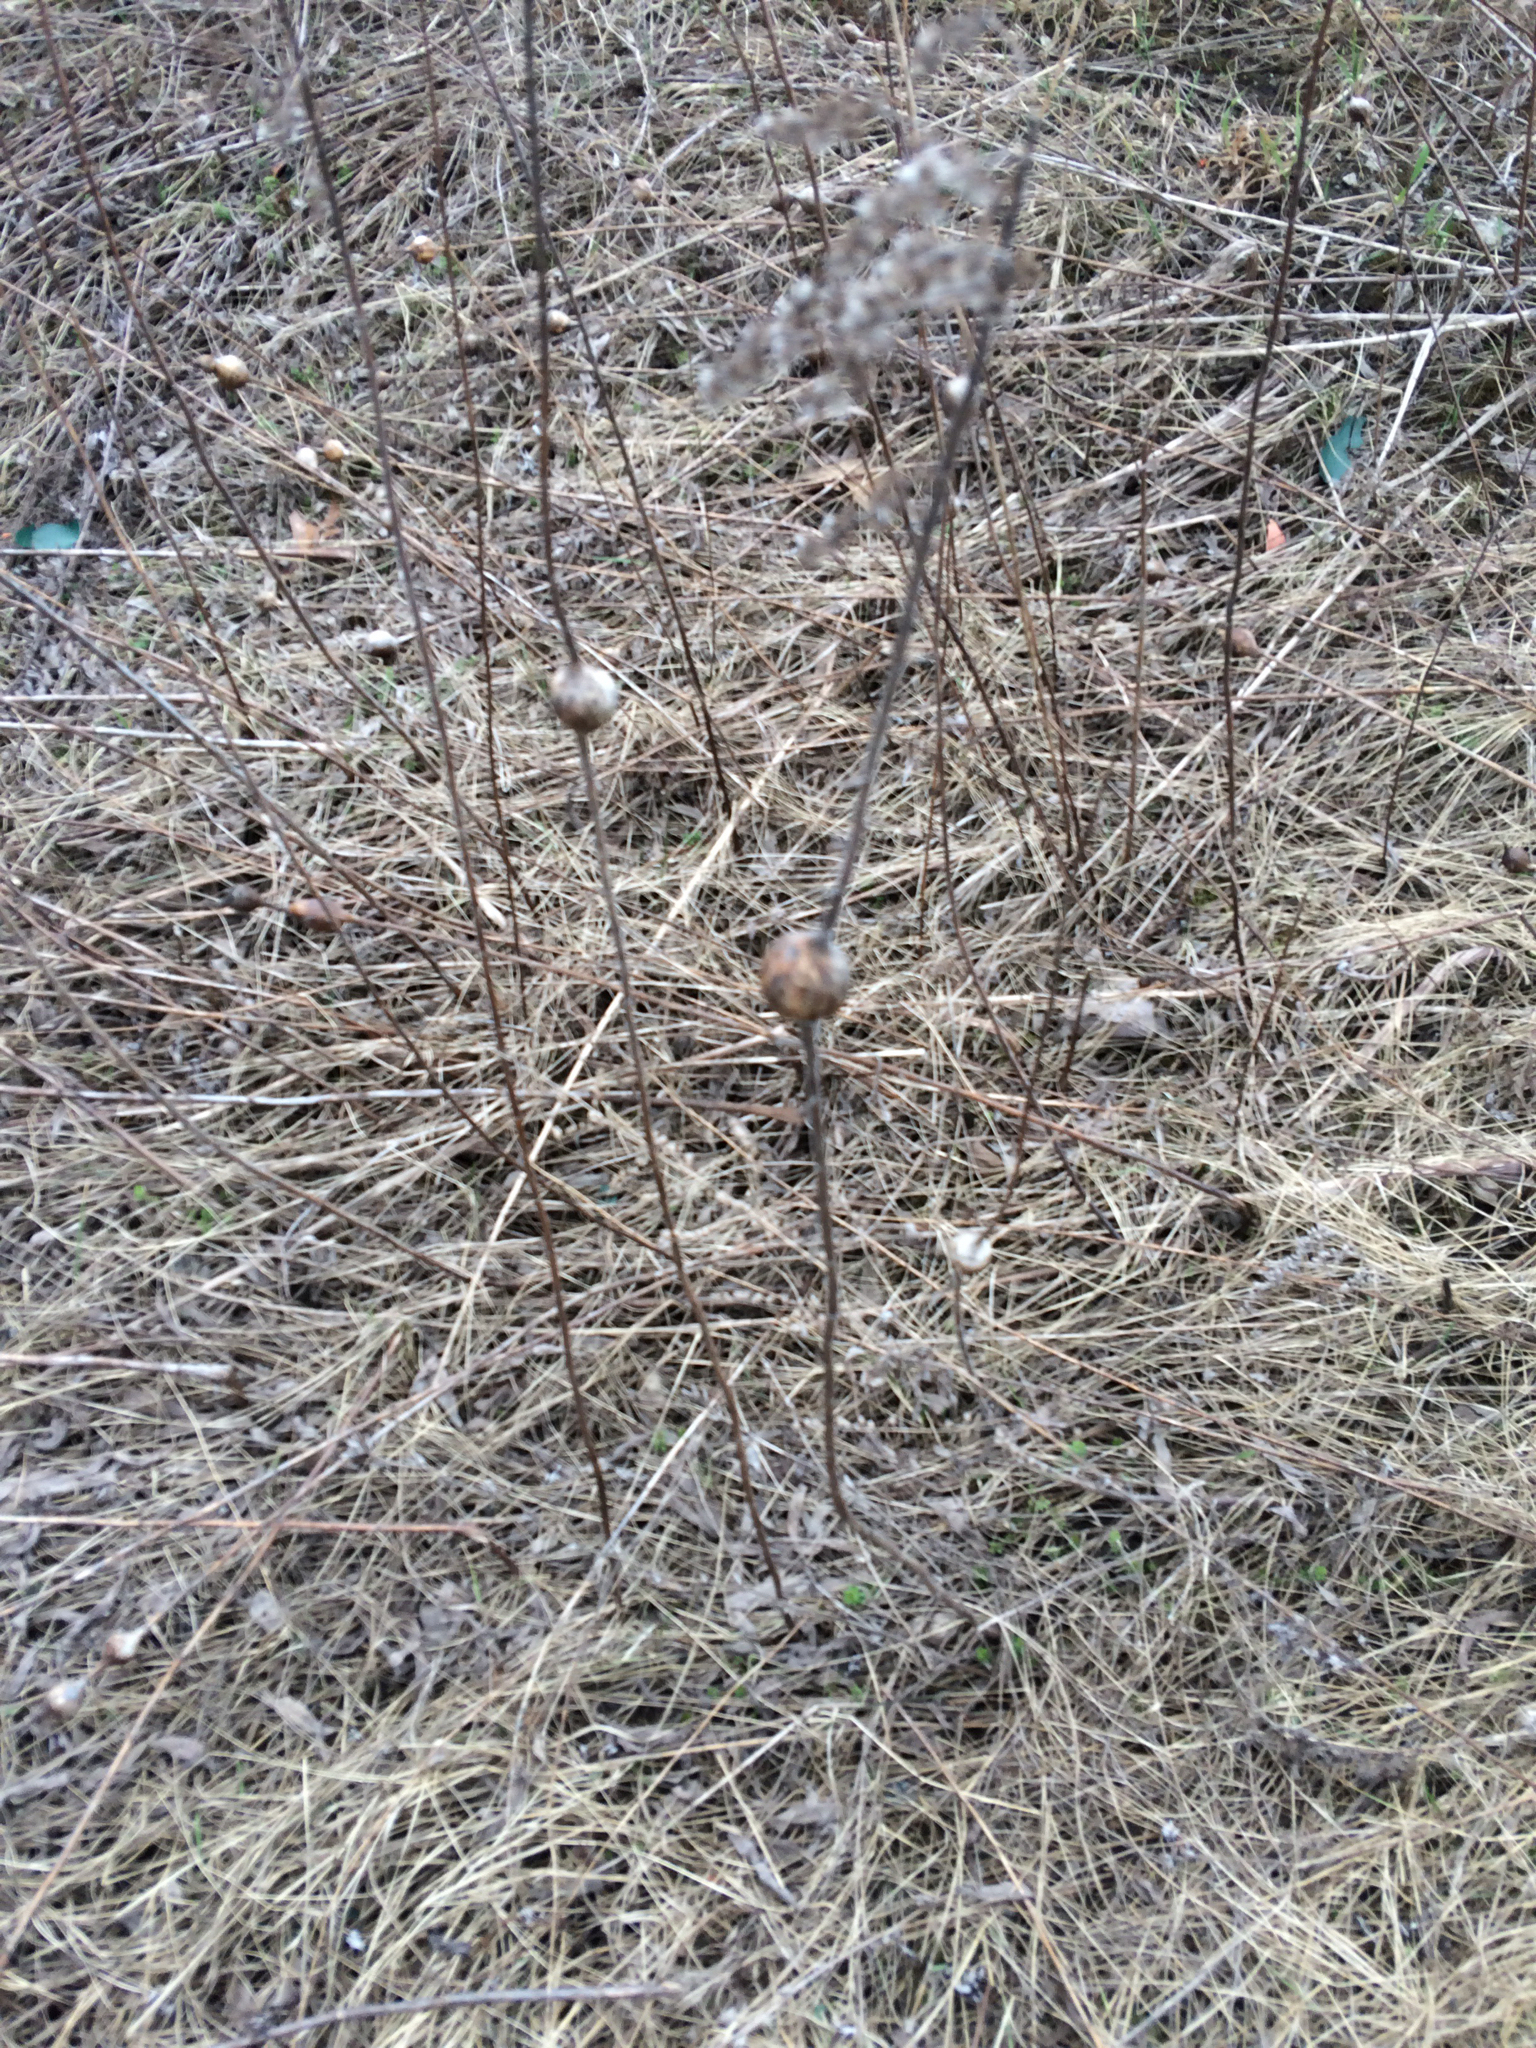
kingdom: Animalia
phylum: Arthropoda
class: Insecta
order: Diptera
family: Tephritidae
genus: Eurosta
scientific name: Eurosta solidaginis
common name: Goldenrod gall fly
